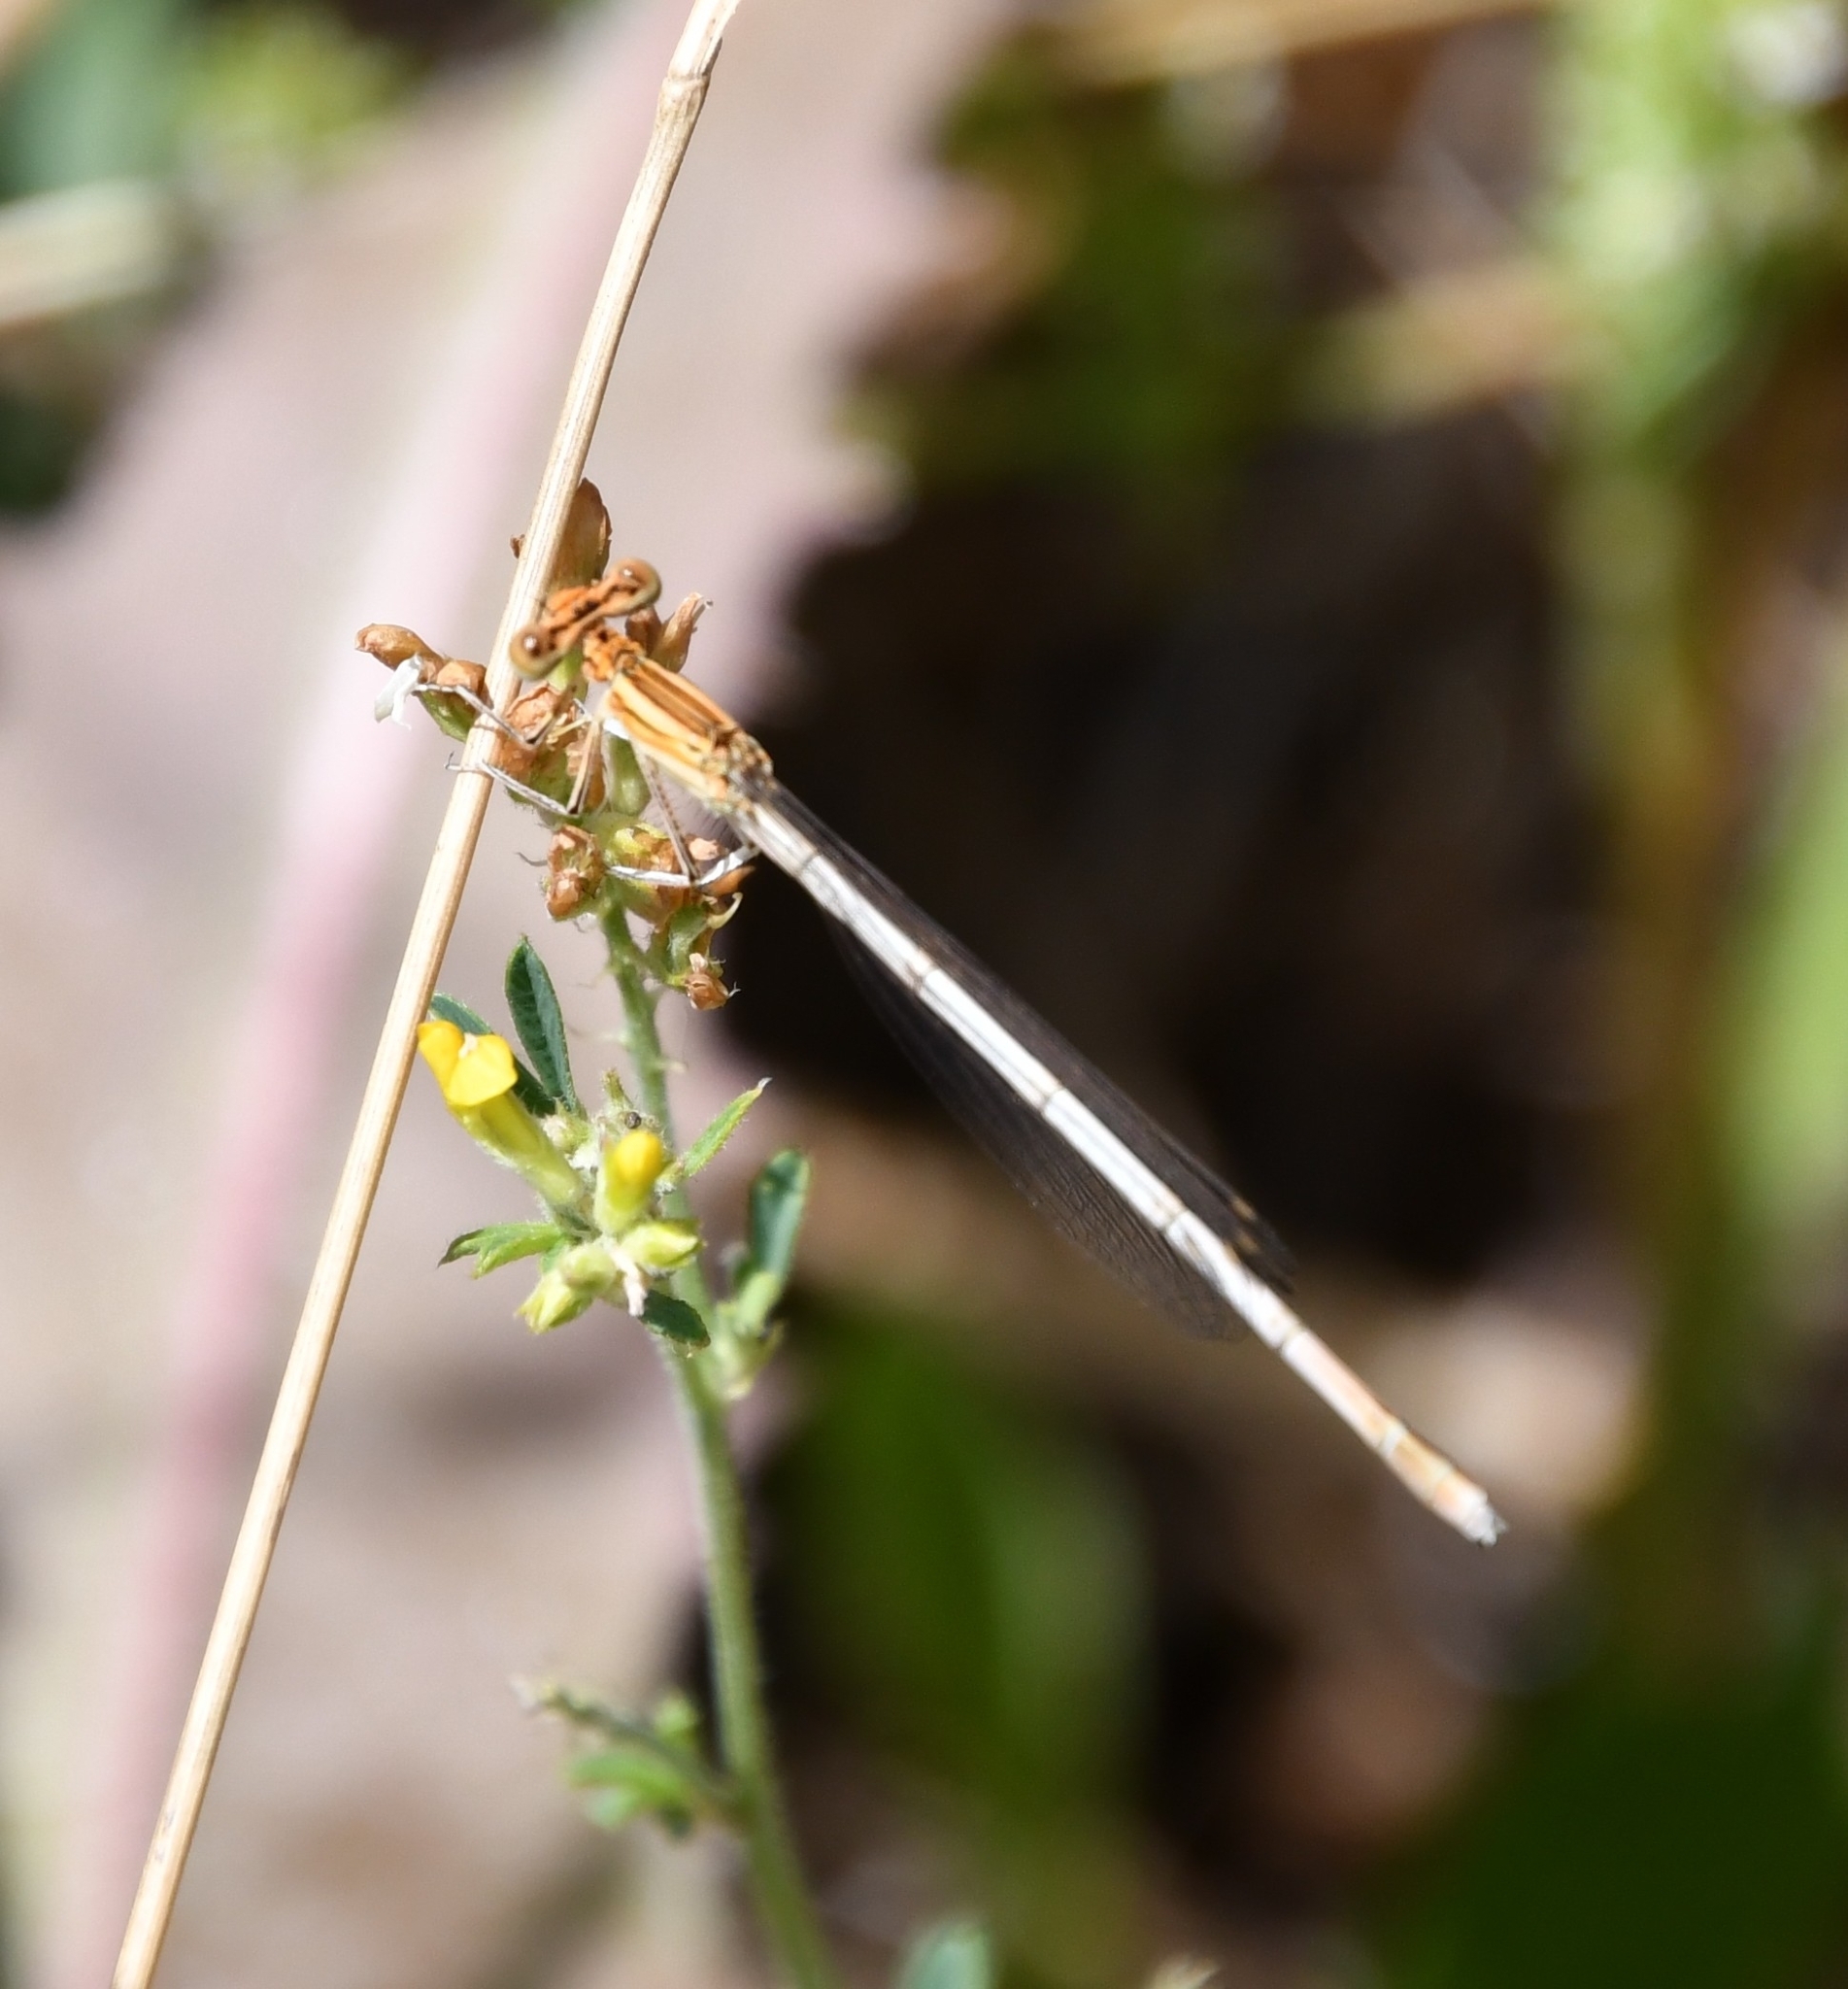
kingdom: Animalia
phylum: Arthropoda
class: Insecta
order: Odonata
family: Platycnemididae
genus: Platycnemis
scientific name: Platycnemis pennipes
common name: White-legged damselfly
